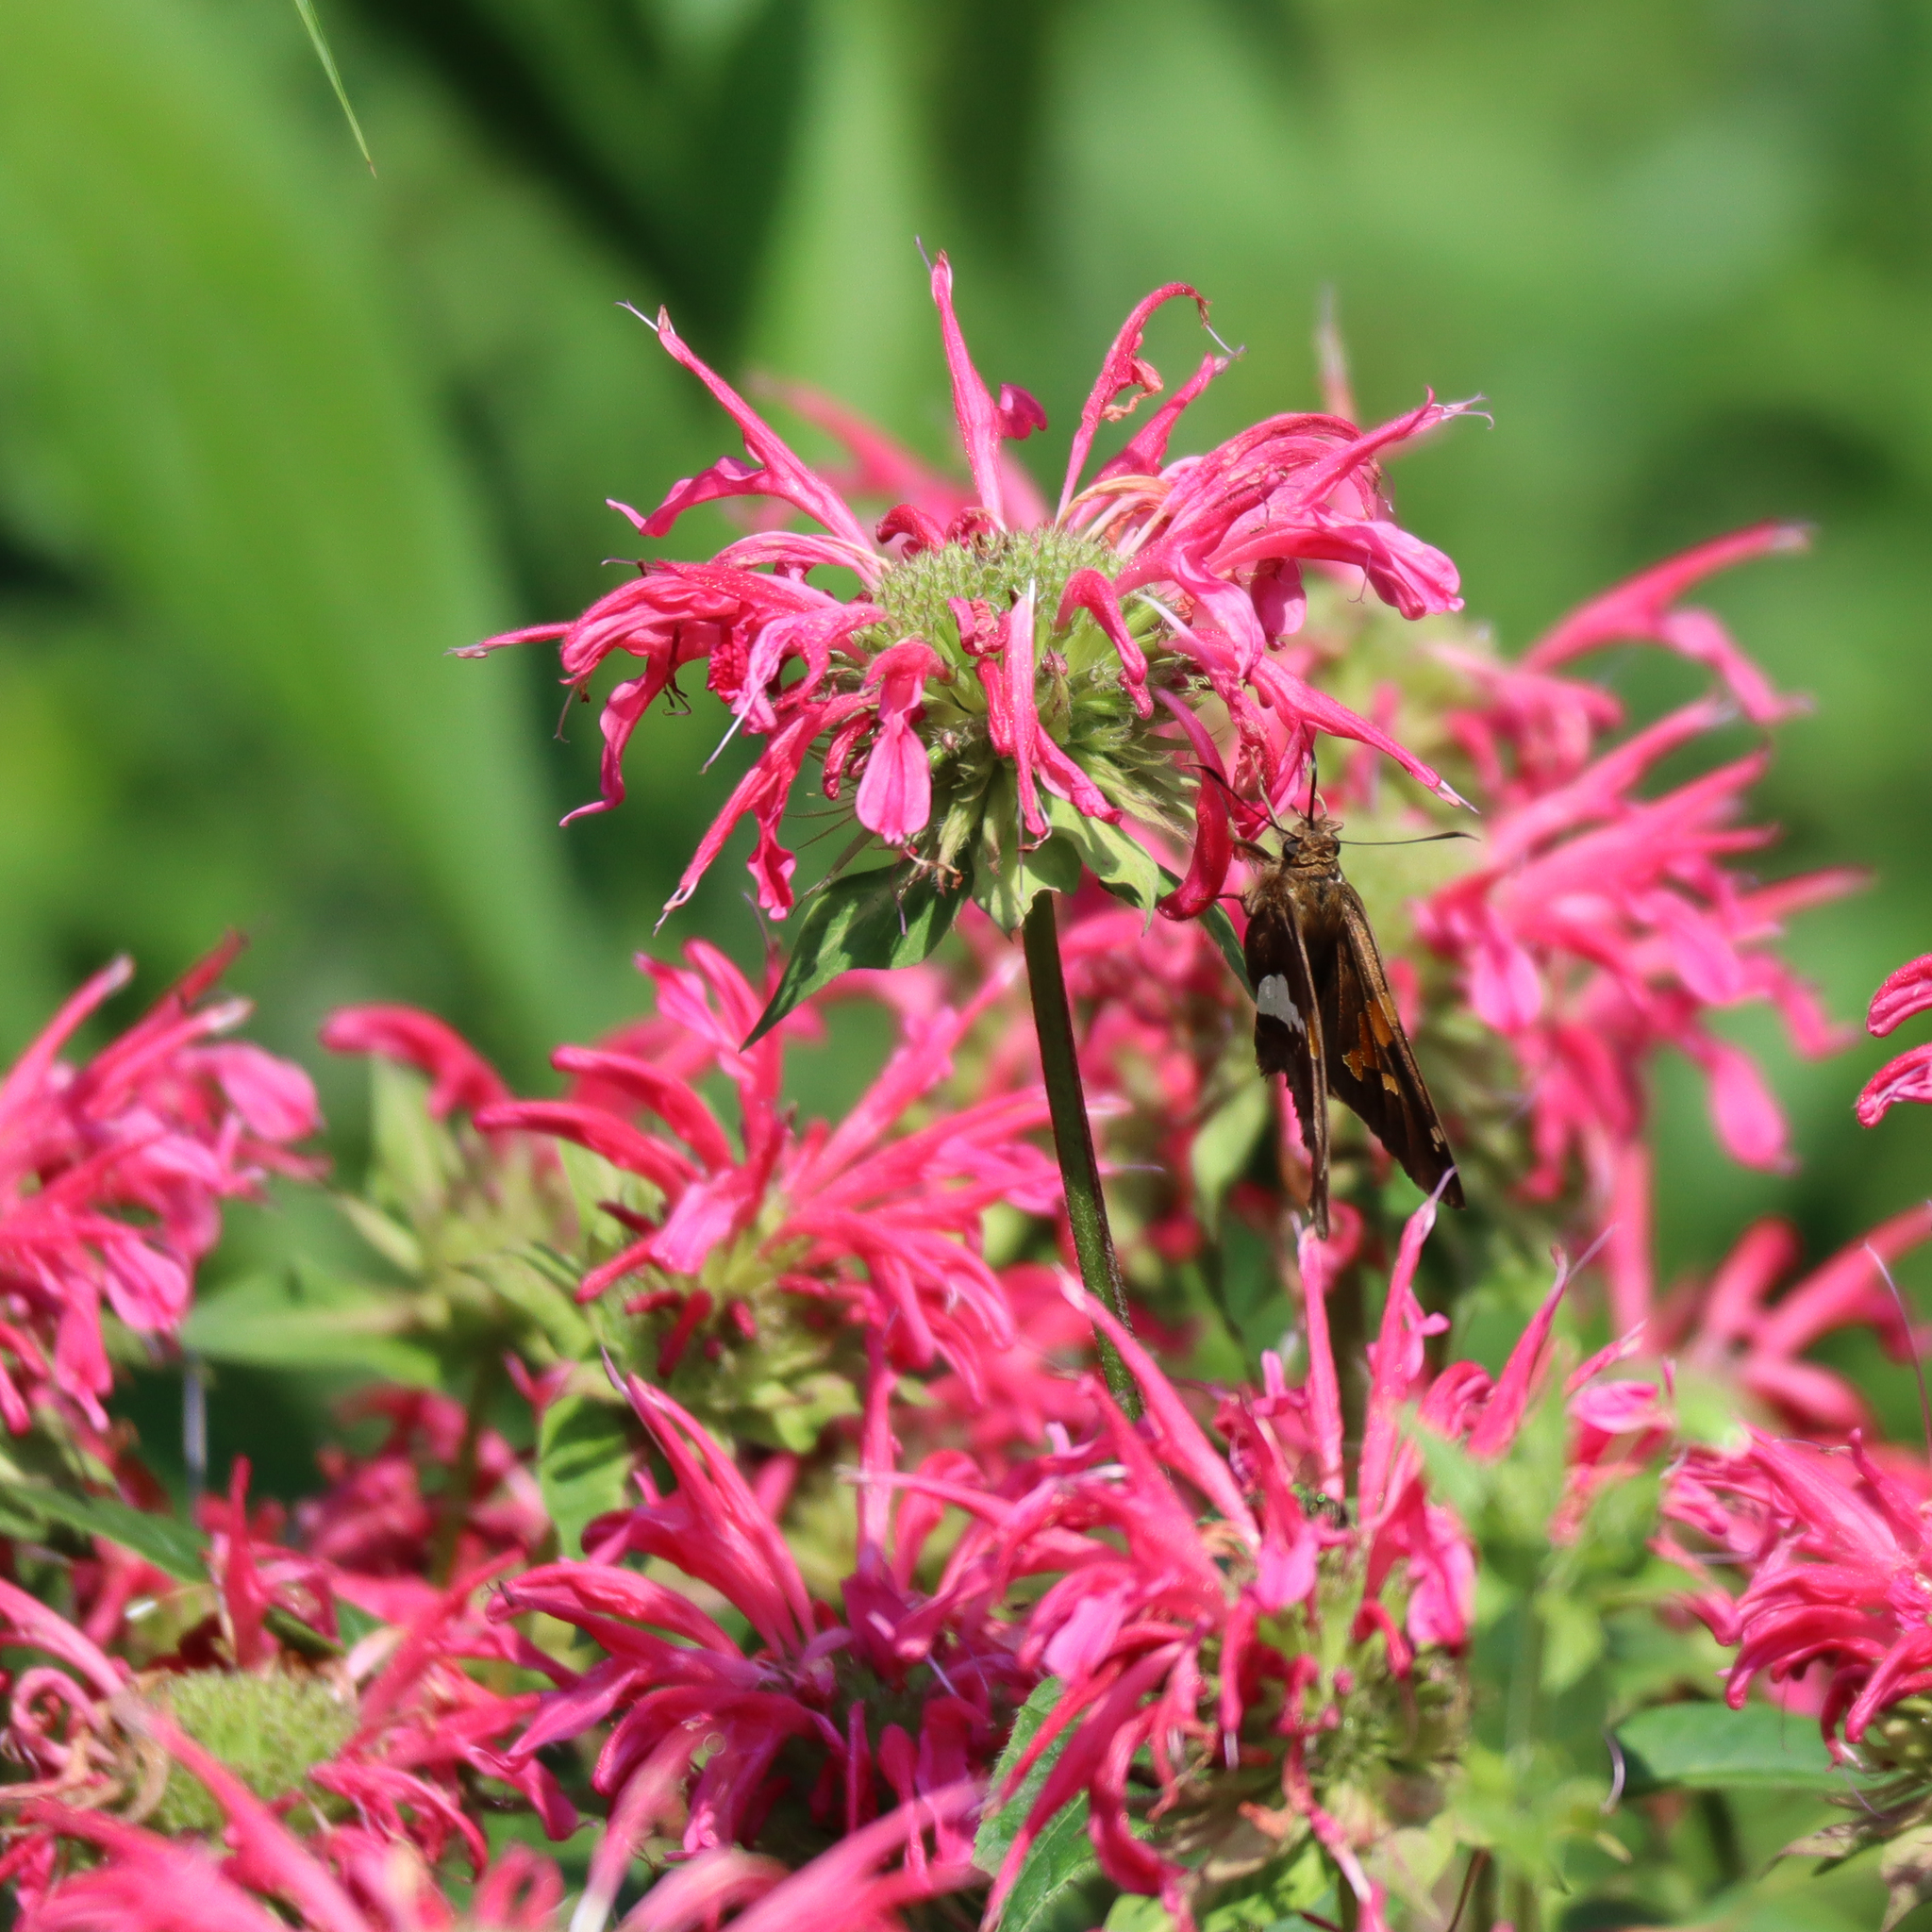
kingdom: Animalia
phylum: Arthropoda
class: Insecta
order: Lepidoptera
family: Hesperiidae
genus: Epargyreus
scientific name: Epargyreus clarus
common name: Silver-spotted skipper
